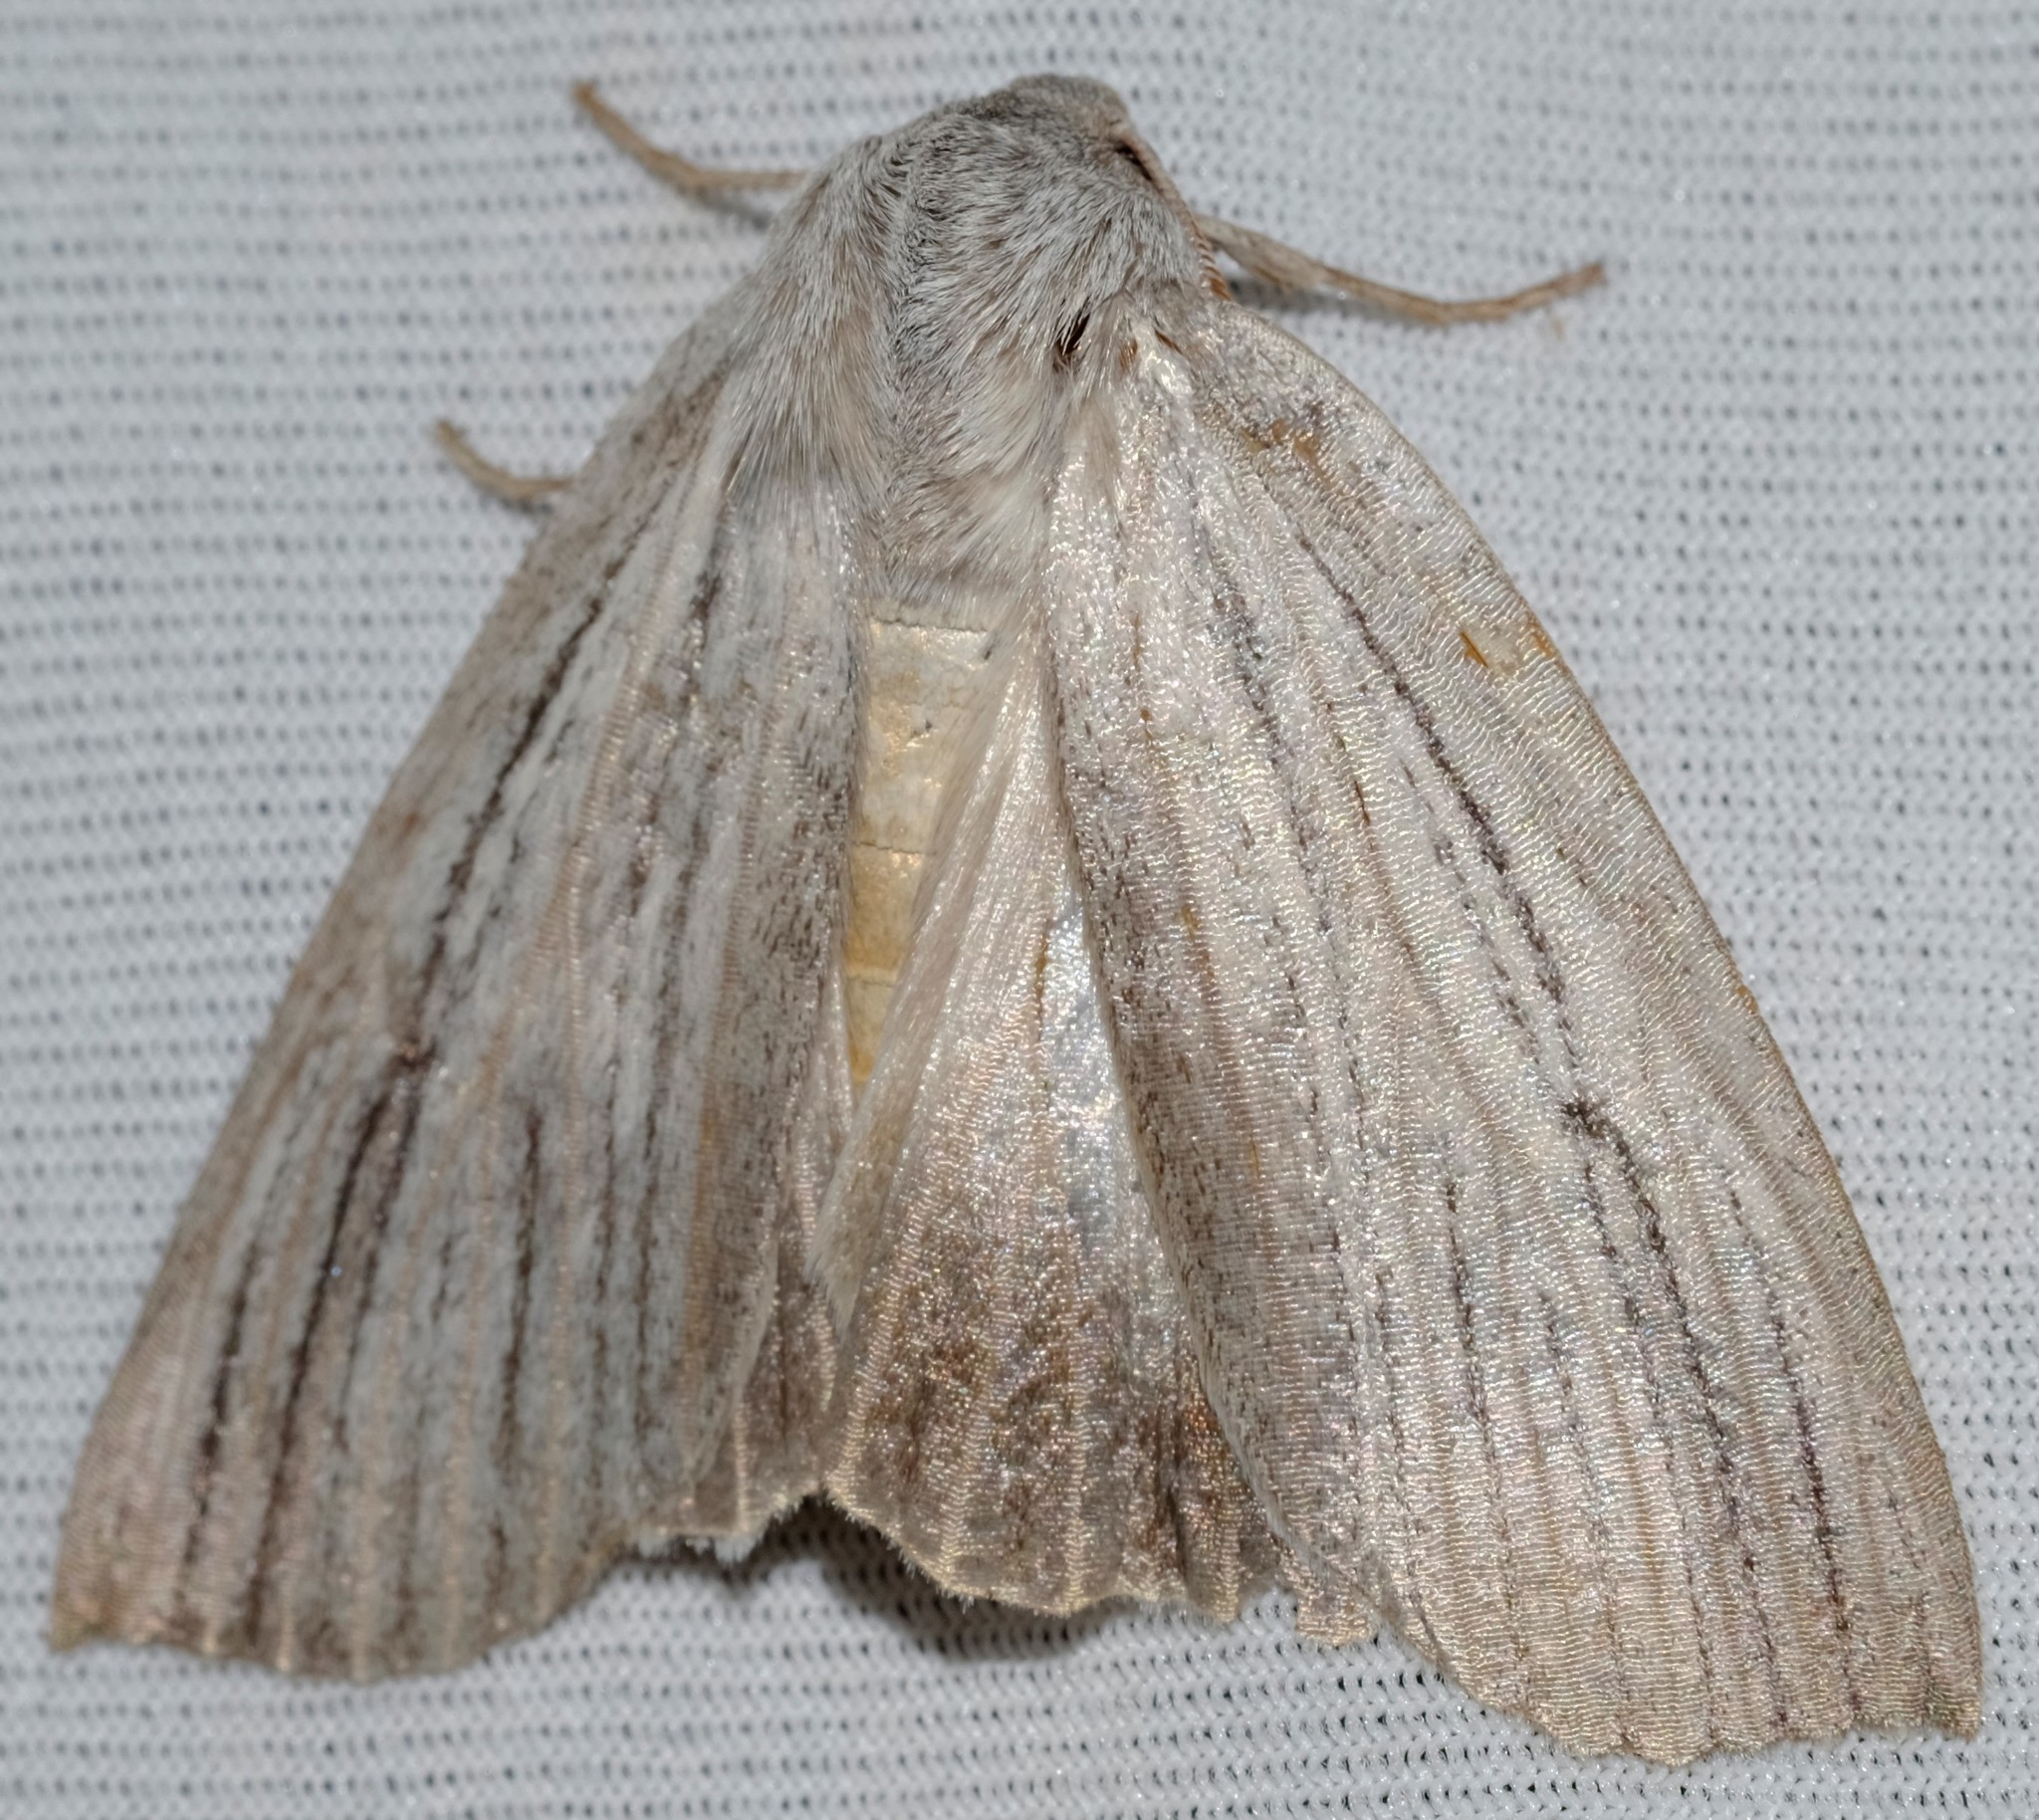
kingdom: Animalia
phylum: Arthropoda
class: Insecta
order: Lepidoptera
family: Geometridae
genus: Paralaea
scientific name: Paralaea polysticha
